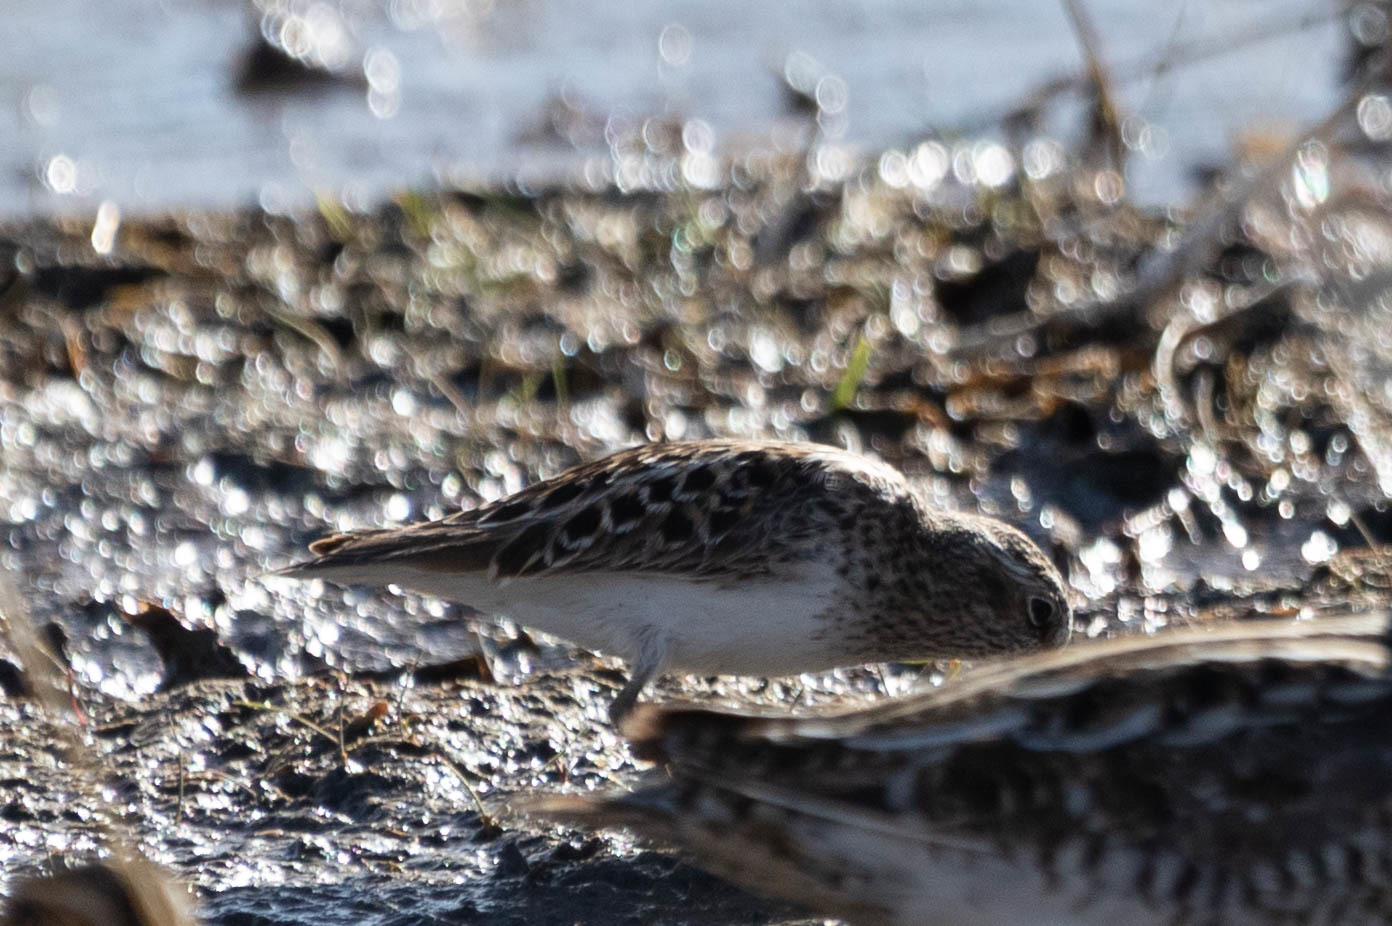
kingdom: Animalia
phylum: Chordata
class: Aves
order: Charadriiformes
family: Scolopacidae
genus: Calidris
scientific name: Calidris minutilla
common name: Least sandpiper
